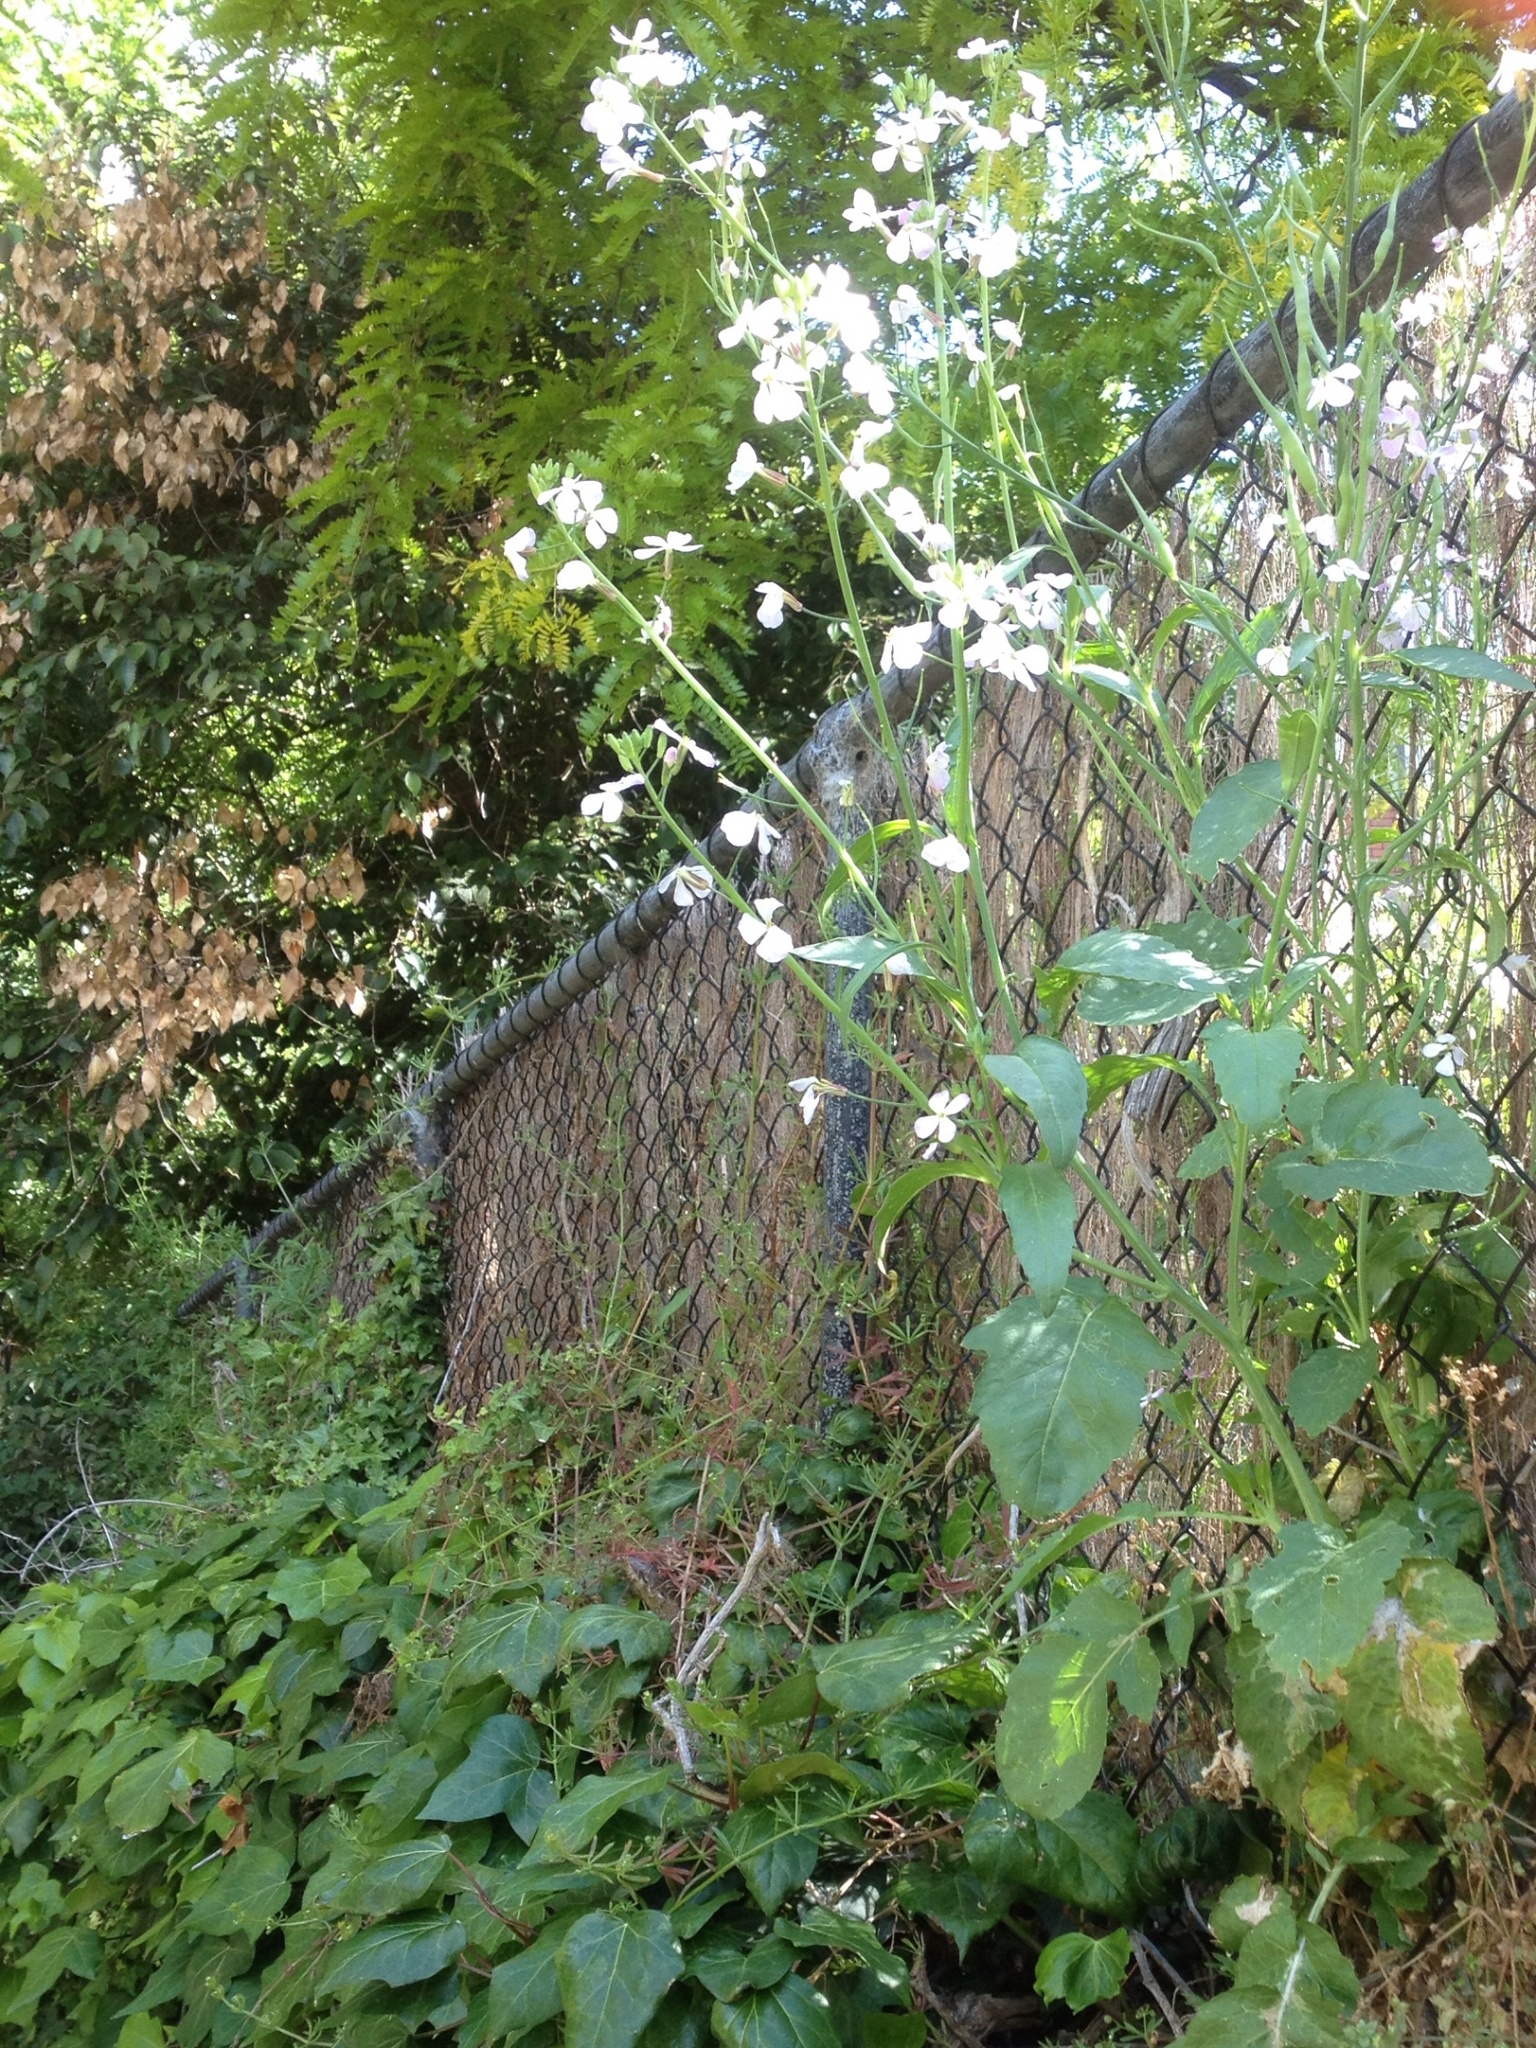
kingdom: Plantae
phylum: Tracheophyta
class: Magnoliopsida
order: Brassicales
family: Brassicaceae
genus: Raphanus
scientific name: Raphanus raphanistrum
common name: Wild radish
